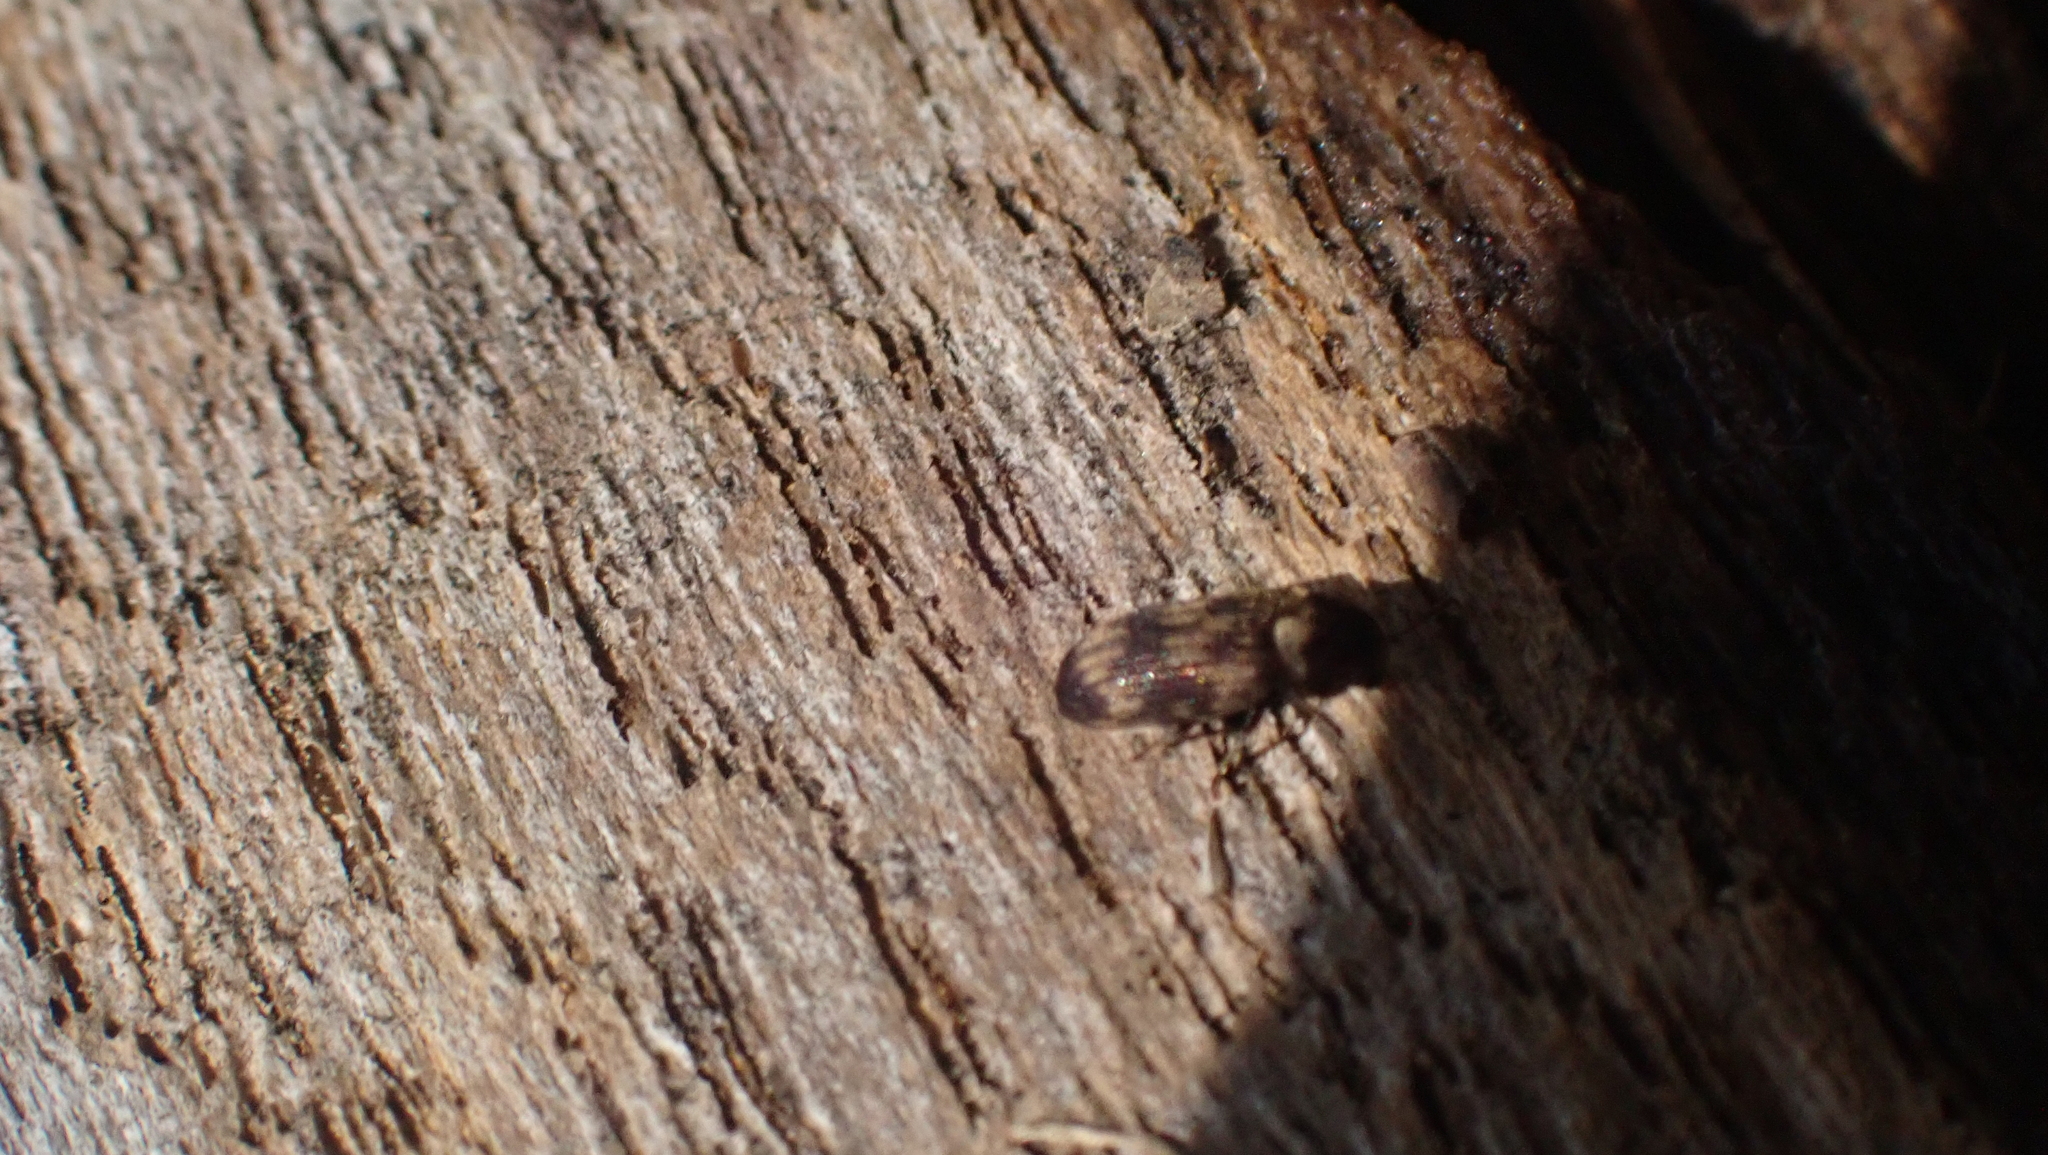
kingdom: Animalia
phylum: Arthropoda
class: Insecta
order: Coleoptera
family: Anobiidae
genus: Hadrobregmus
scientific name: Hadrobregmus notatus
